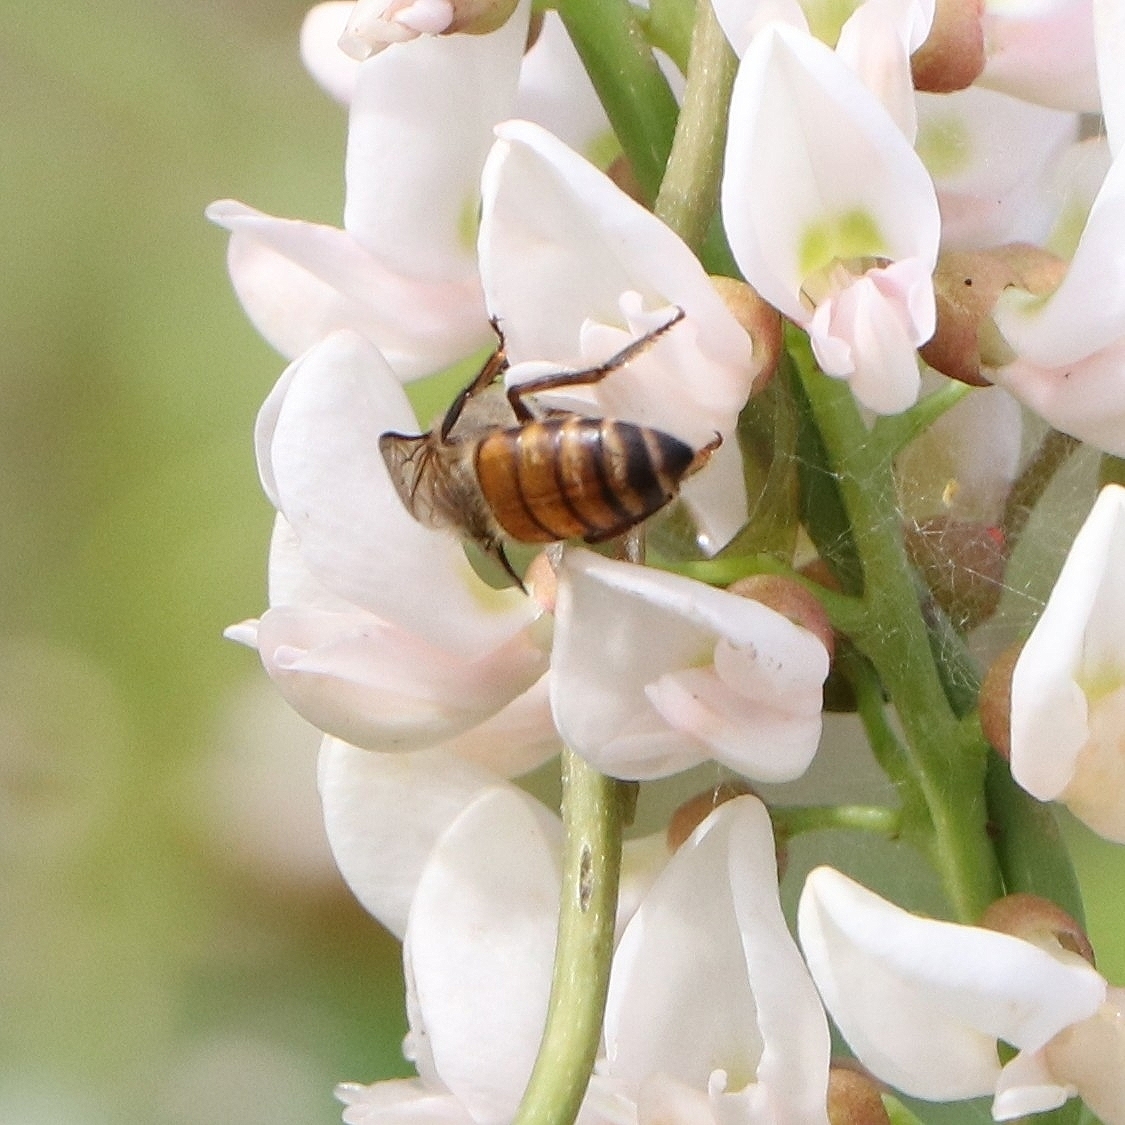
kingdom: Animalia
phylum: Arthropoda
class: Insecta
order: Hymenoptera
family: Apidae
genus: Apis
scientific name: Apis cerana
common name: Honey bee
